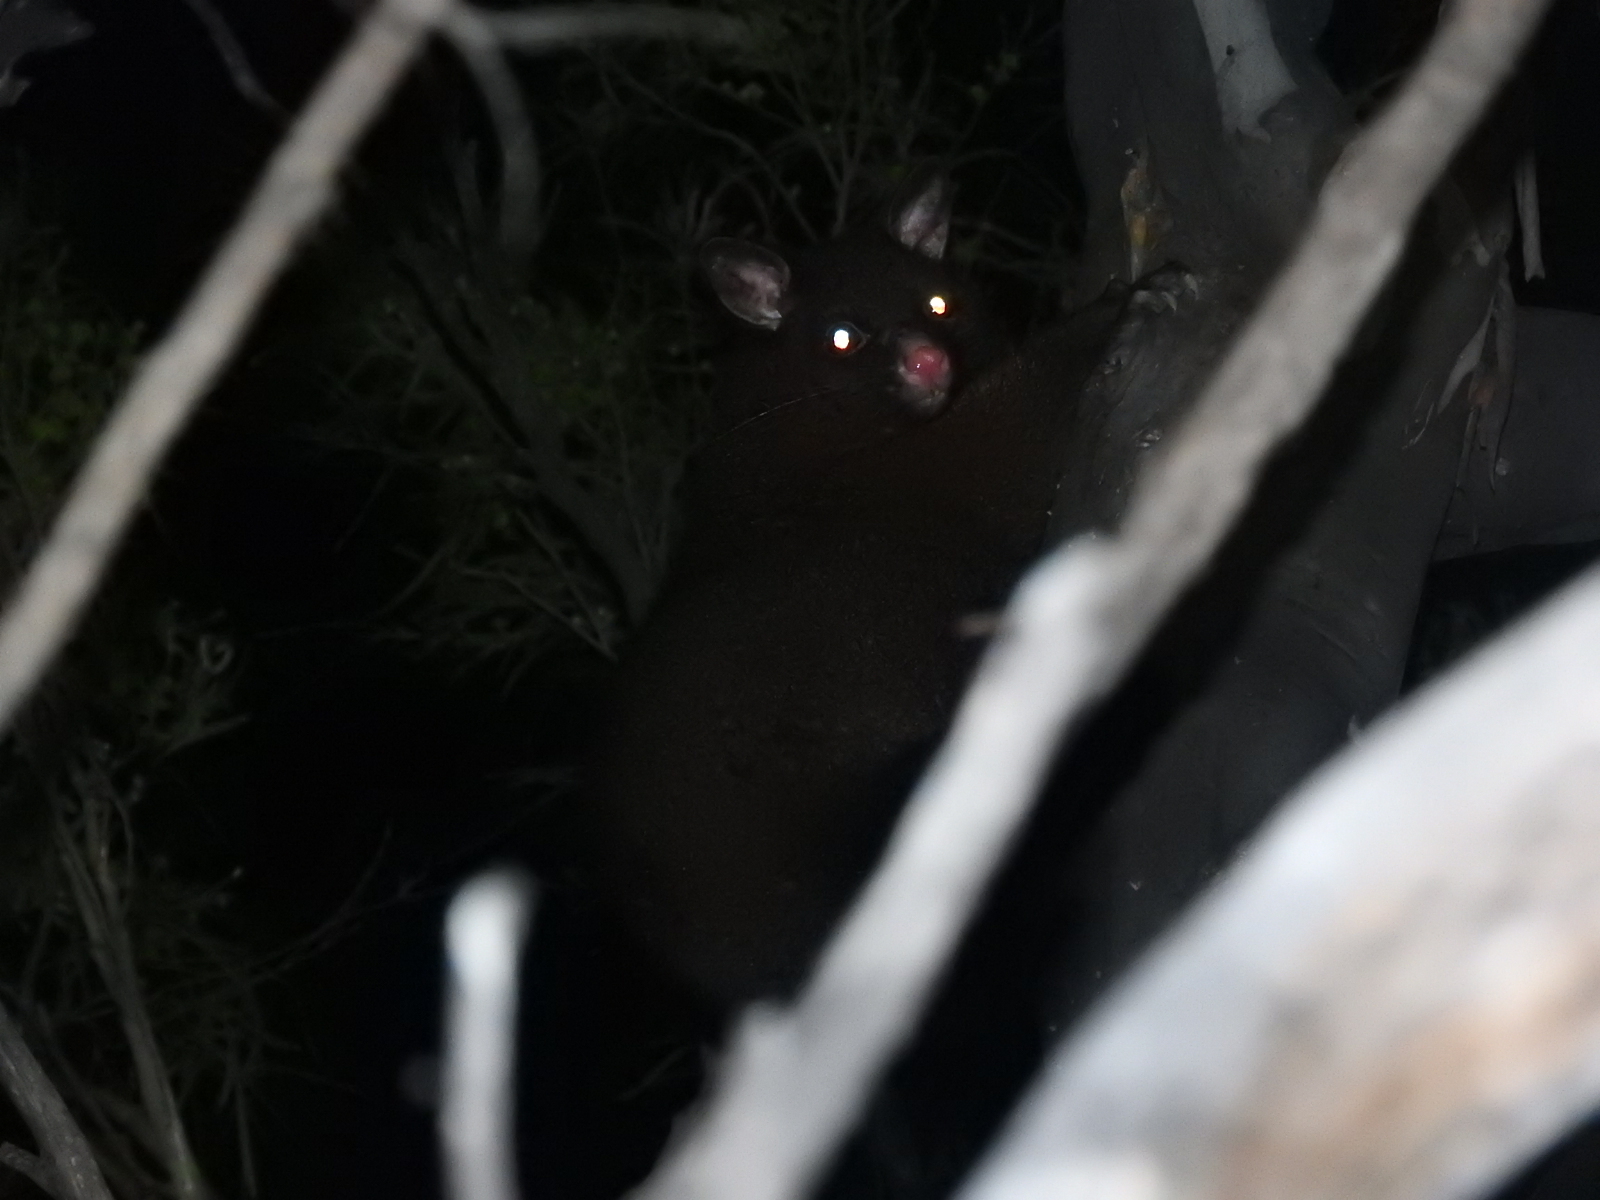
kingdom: Animalia
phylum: Chordata
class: Mammalia
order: Diprotodontia
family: Phalangeridae
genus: Trichosurus
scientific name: Trichosurus vulpecula
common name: Common brushtail
